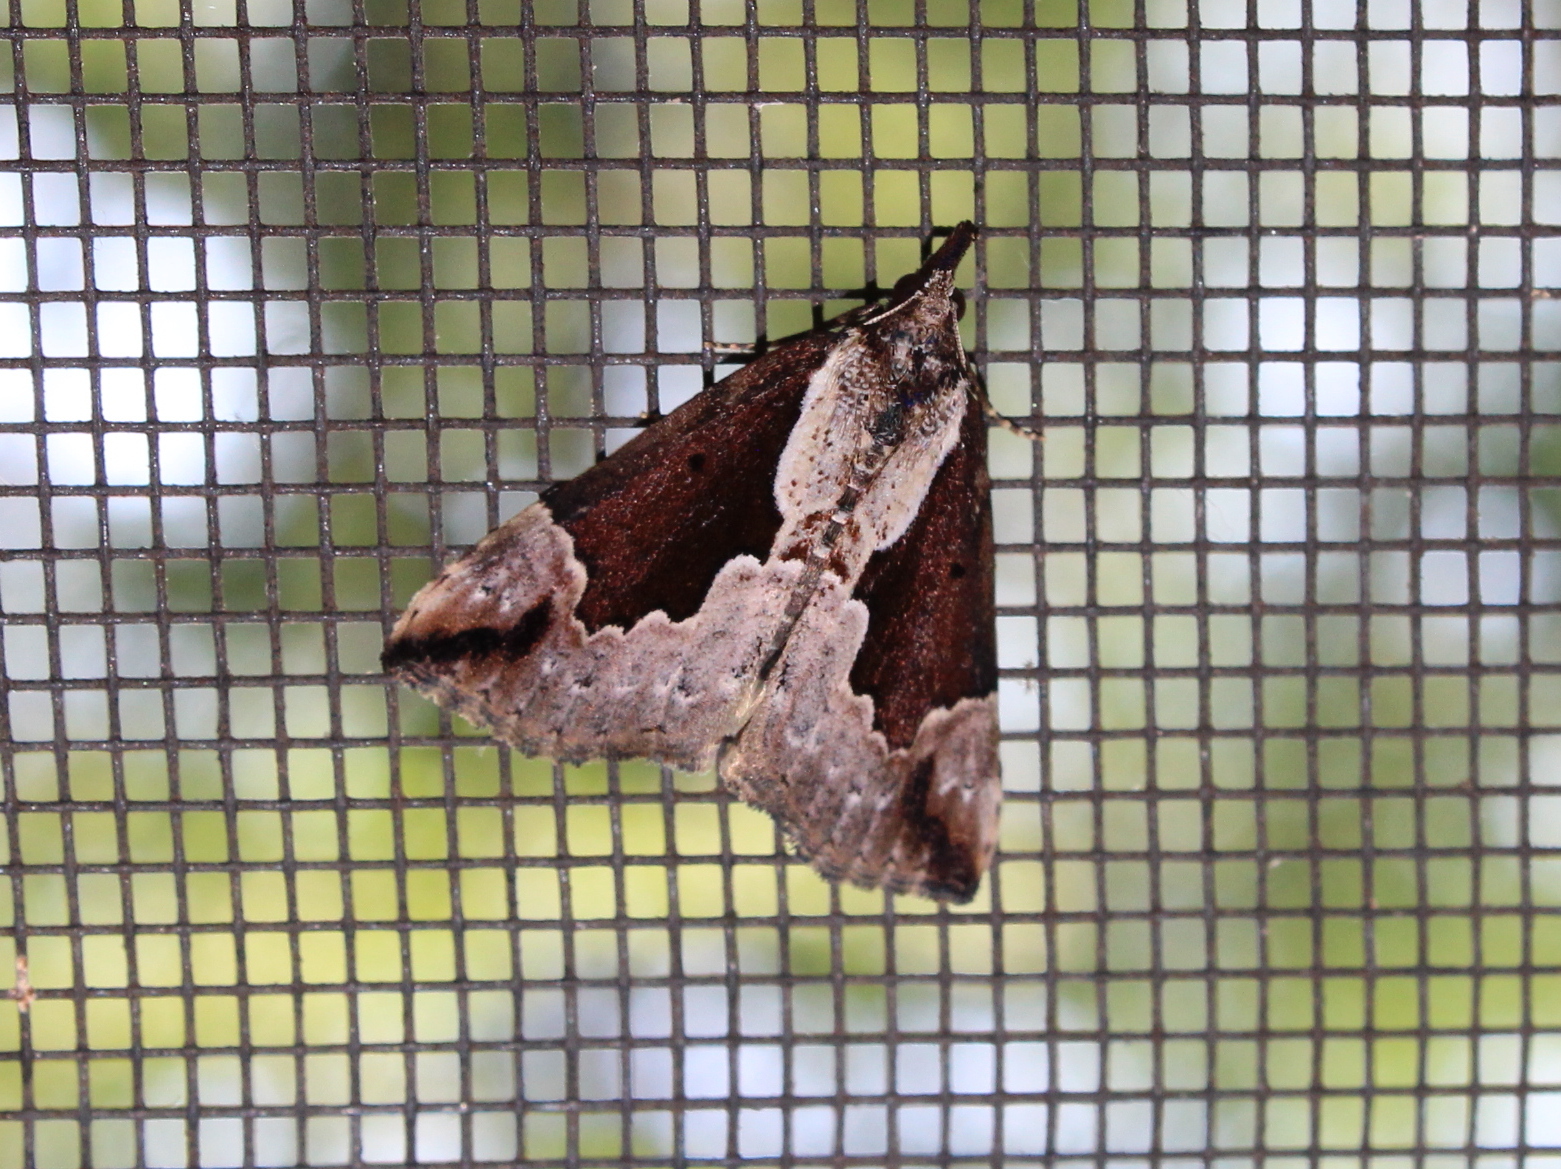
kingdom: Animalia
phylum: Arthropoda
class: Insecta
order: Lepidoptera
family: Erebidae
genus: Hypena
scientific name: Hypena baltimoralis
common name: Baltimore snout
